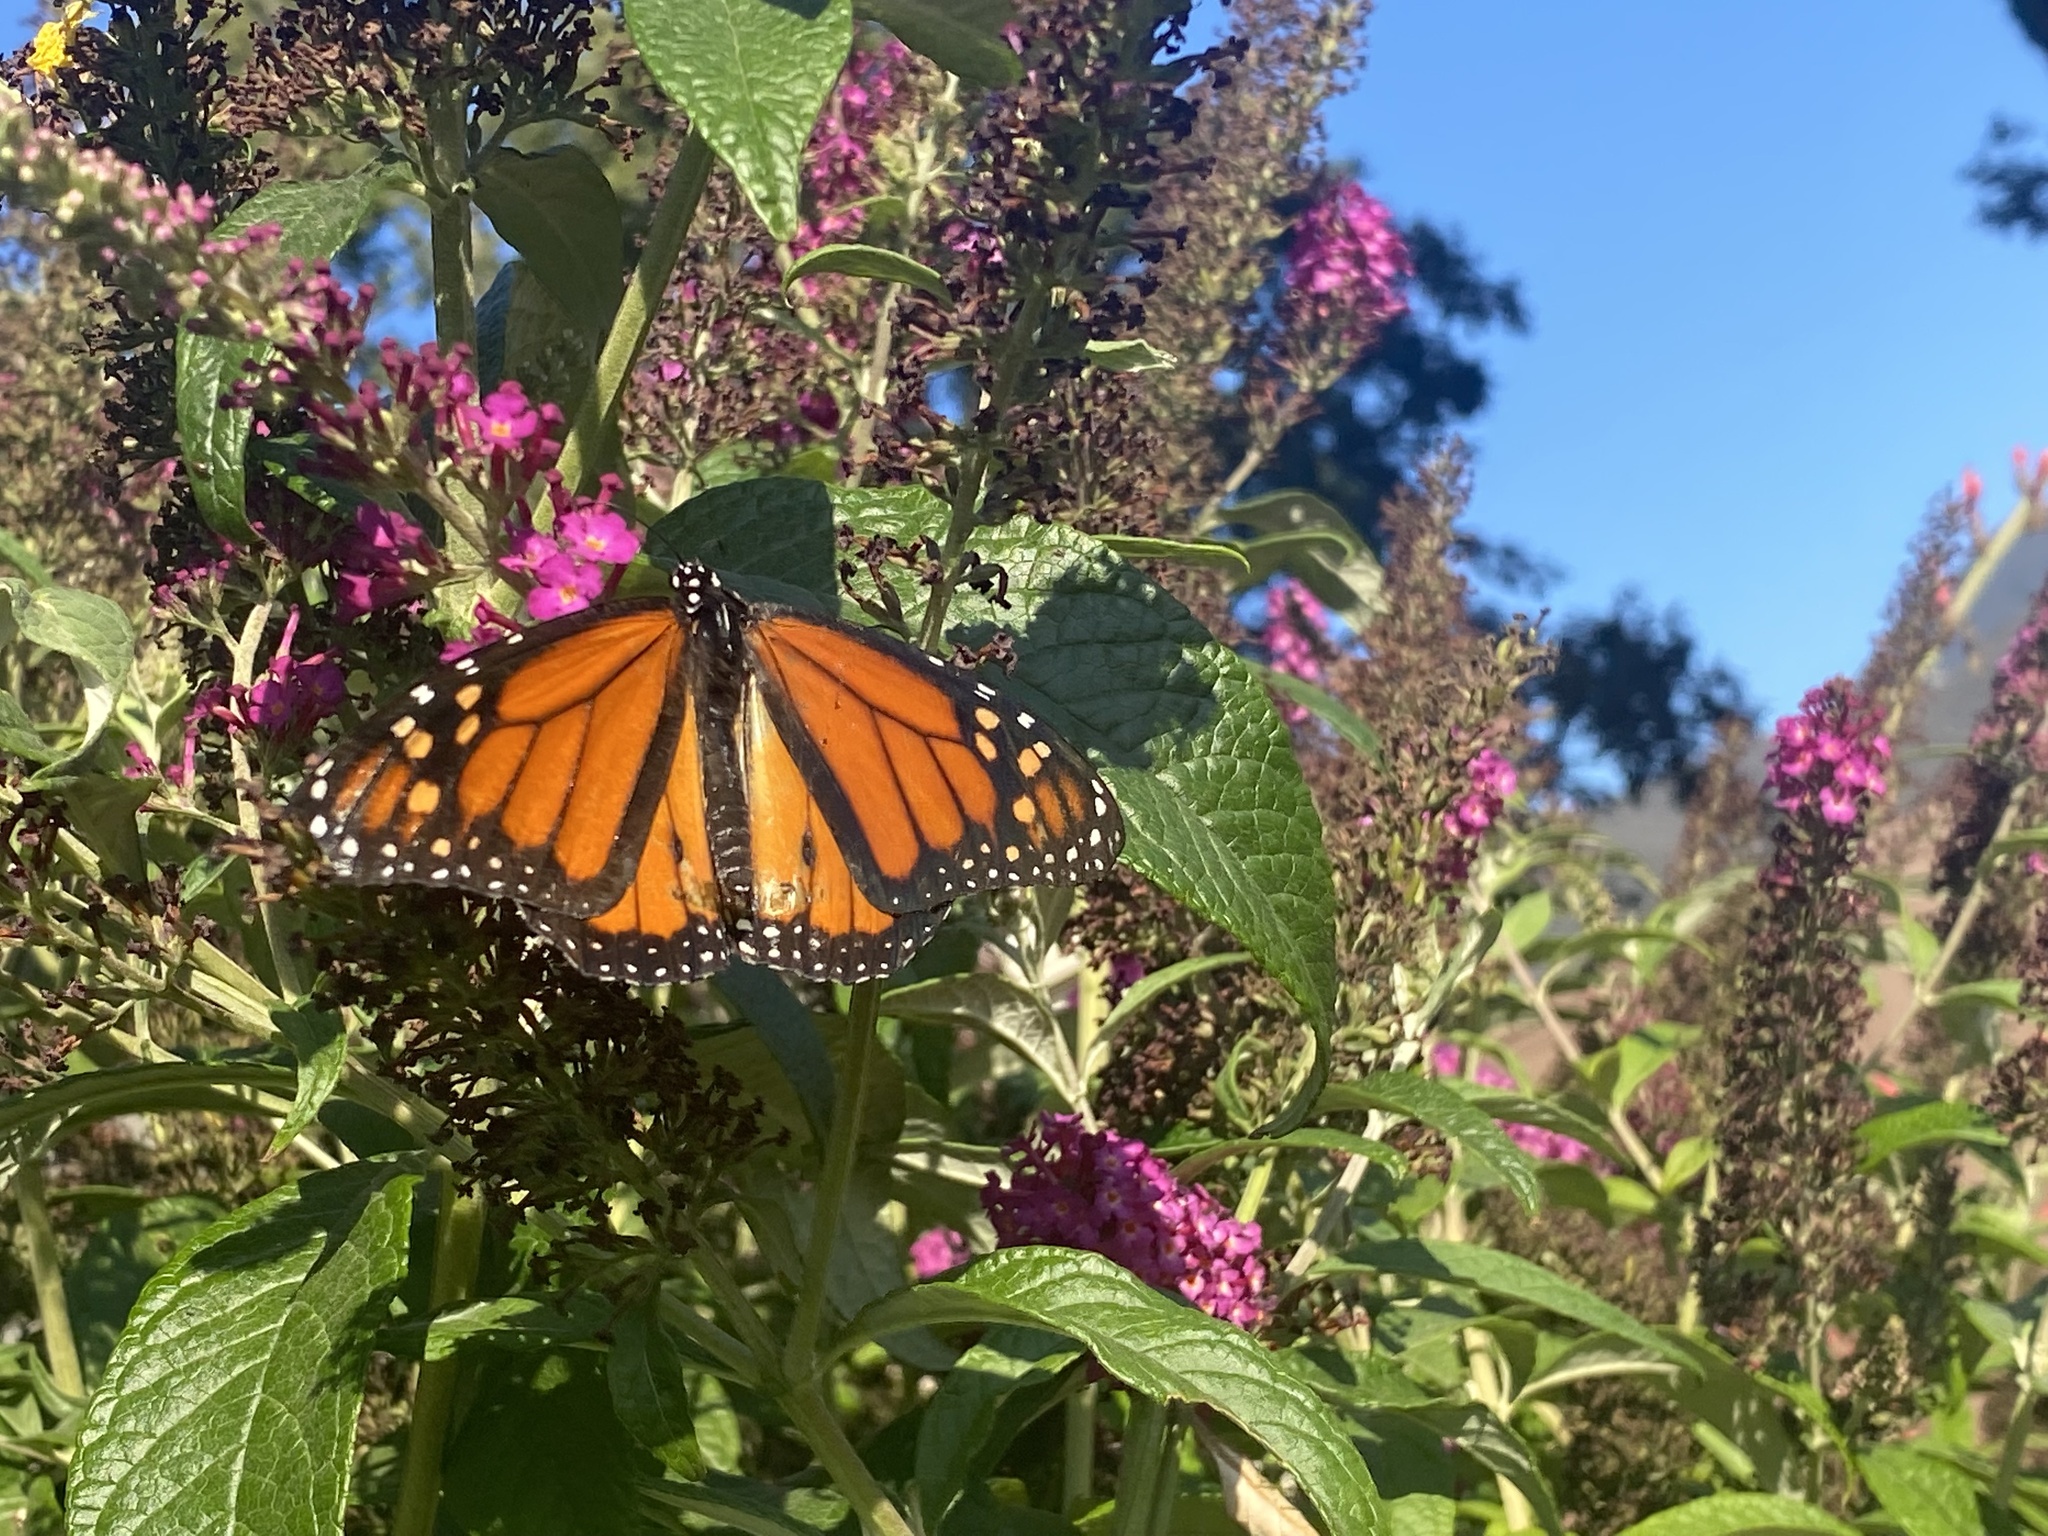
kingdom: Animalia
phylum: Arthropoda
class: Insecta
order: Lepidoptera
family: Nymphalidae
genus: Danaus
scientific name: Danaus plexippus
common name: Monarch
